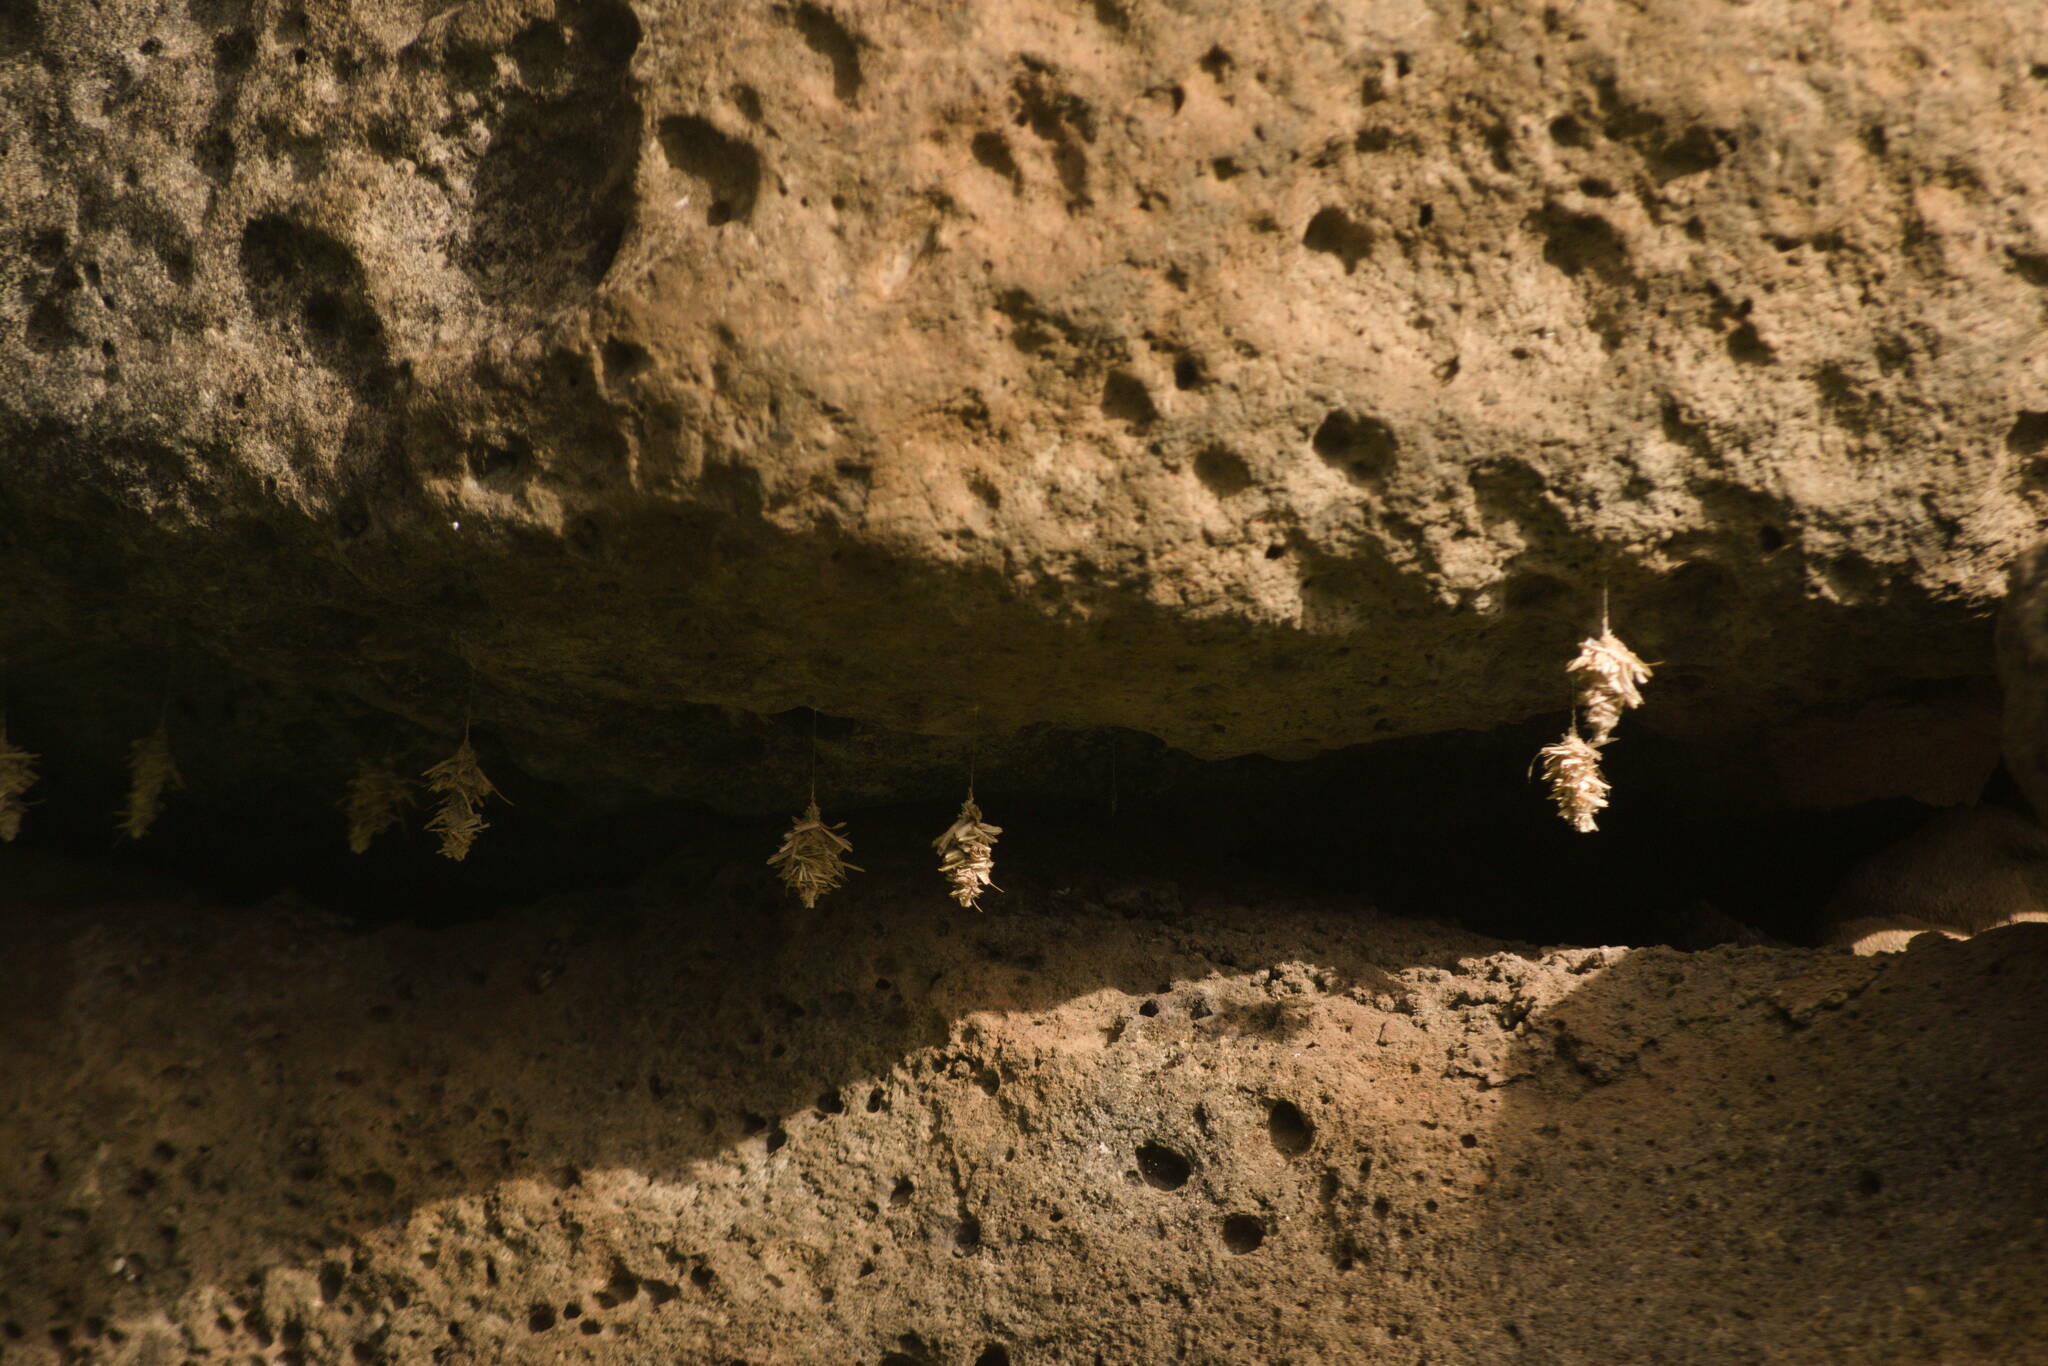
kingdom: Animalia
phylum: Arthropoda
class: Insecta
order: Lepidoptera
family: Psychidae
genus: Brachycyttarus
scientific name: Brachycyttarus griseus
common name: Grass bagworm
